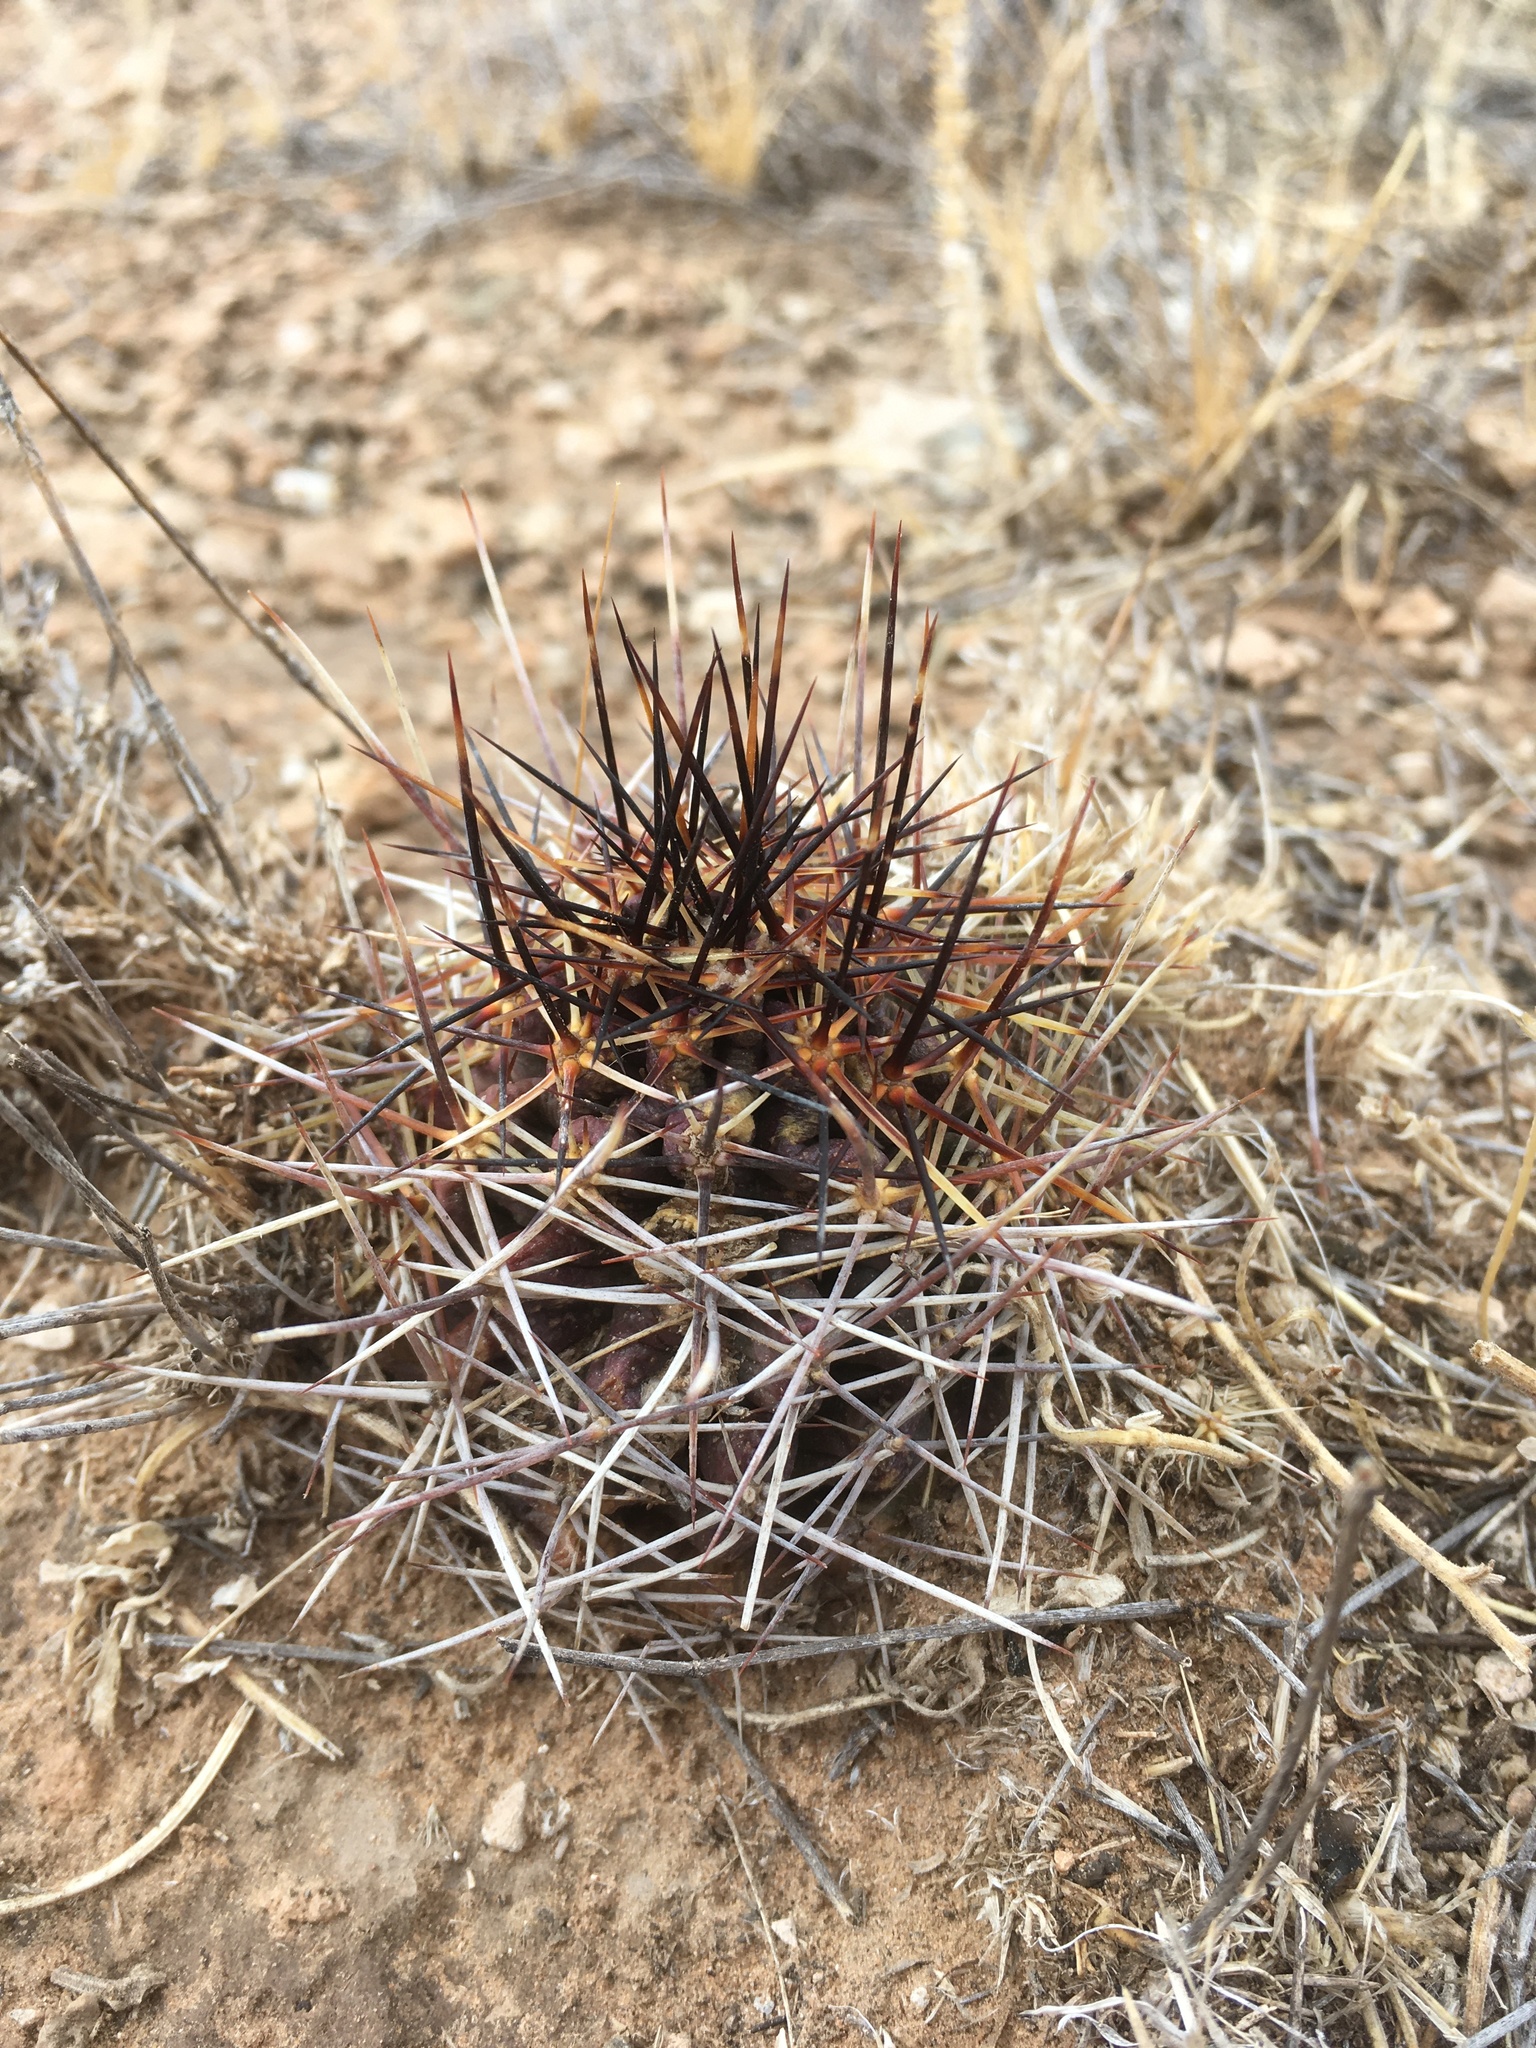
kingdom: Plantae
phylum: Tracheophyta
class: Magnoliopsida
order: Caryophyllales
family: Cactaceae
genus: Echinocereus
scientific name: Echinocereus fendleri
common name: Fendler's hedgehog cactus
